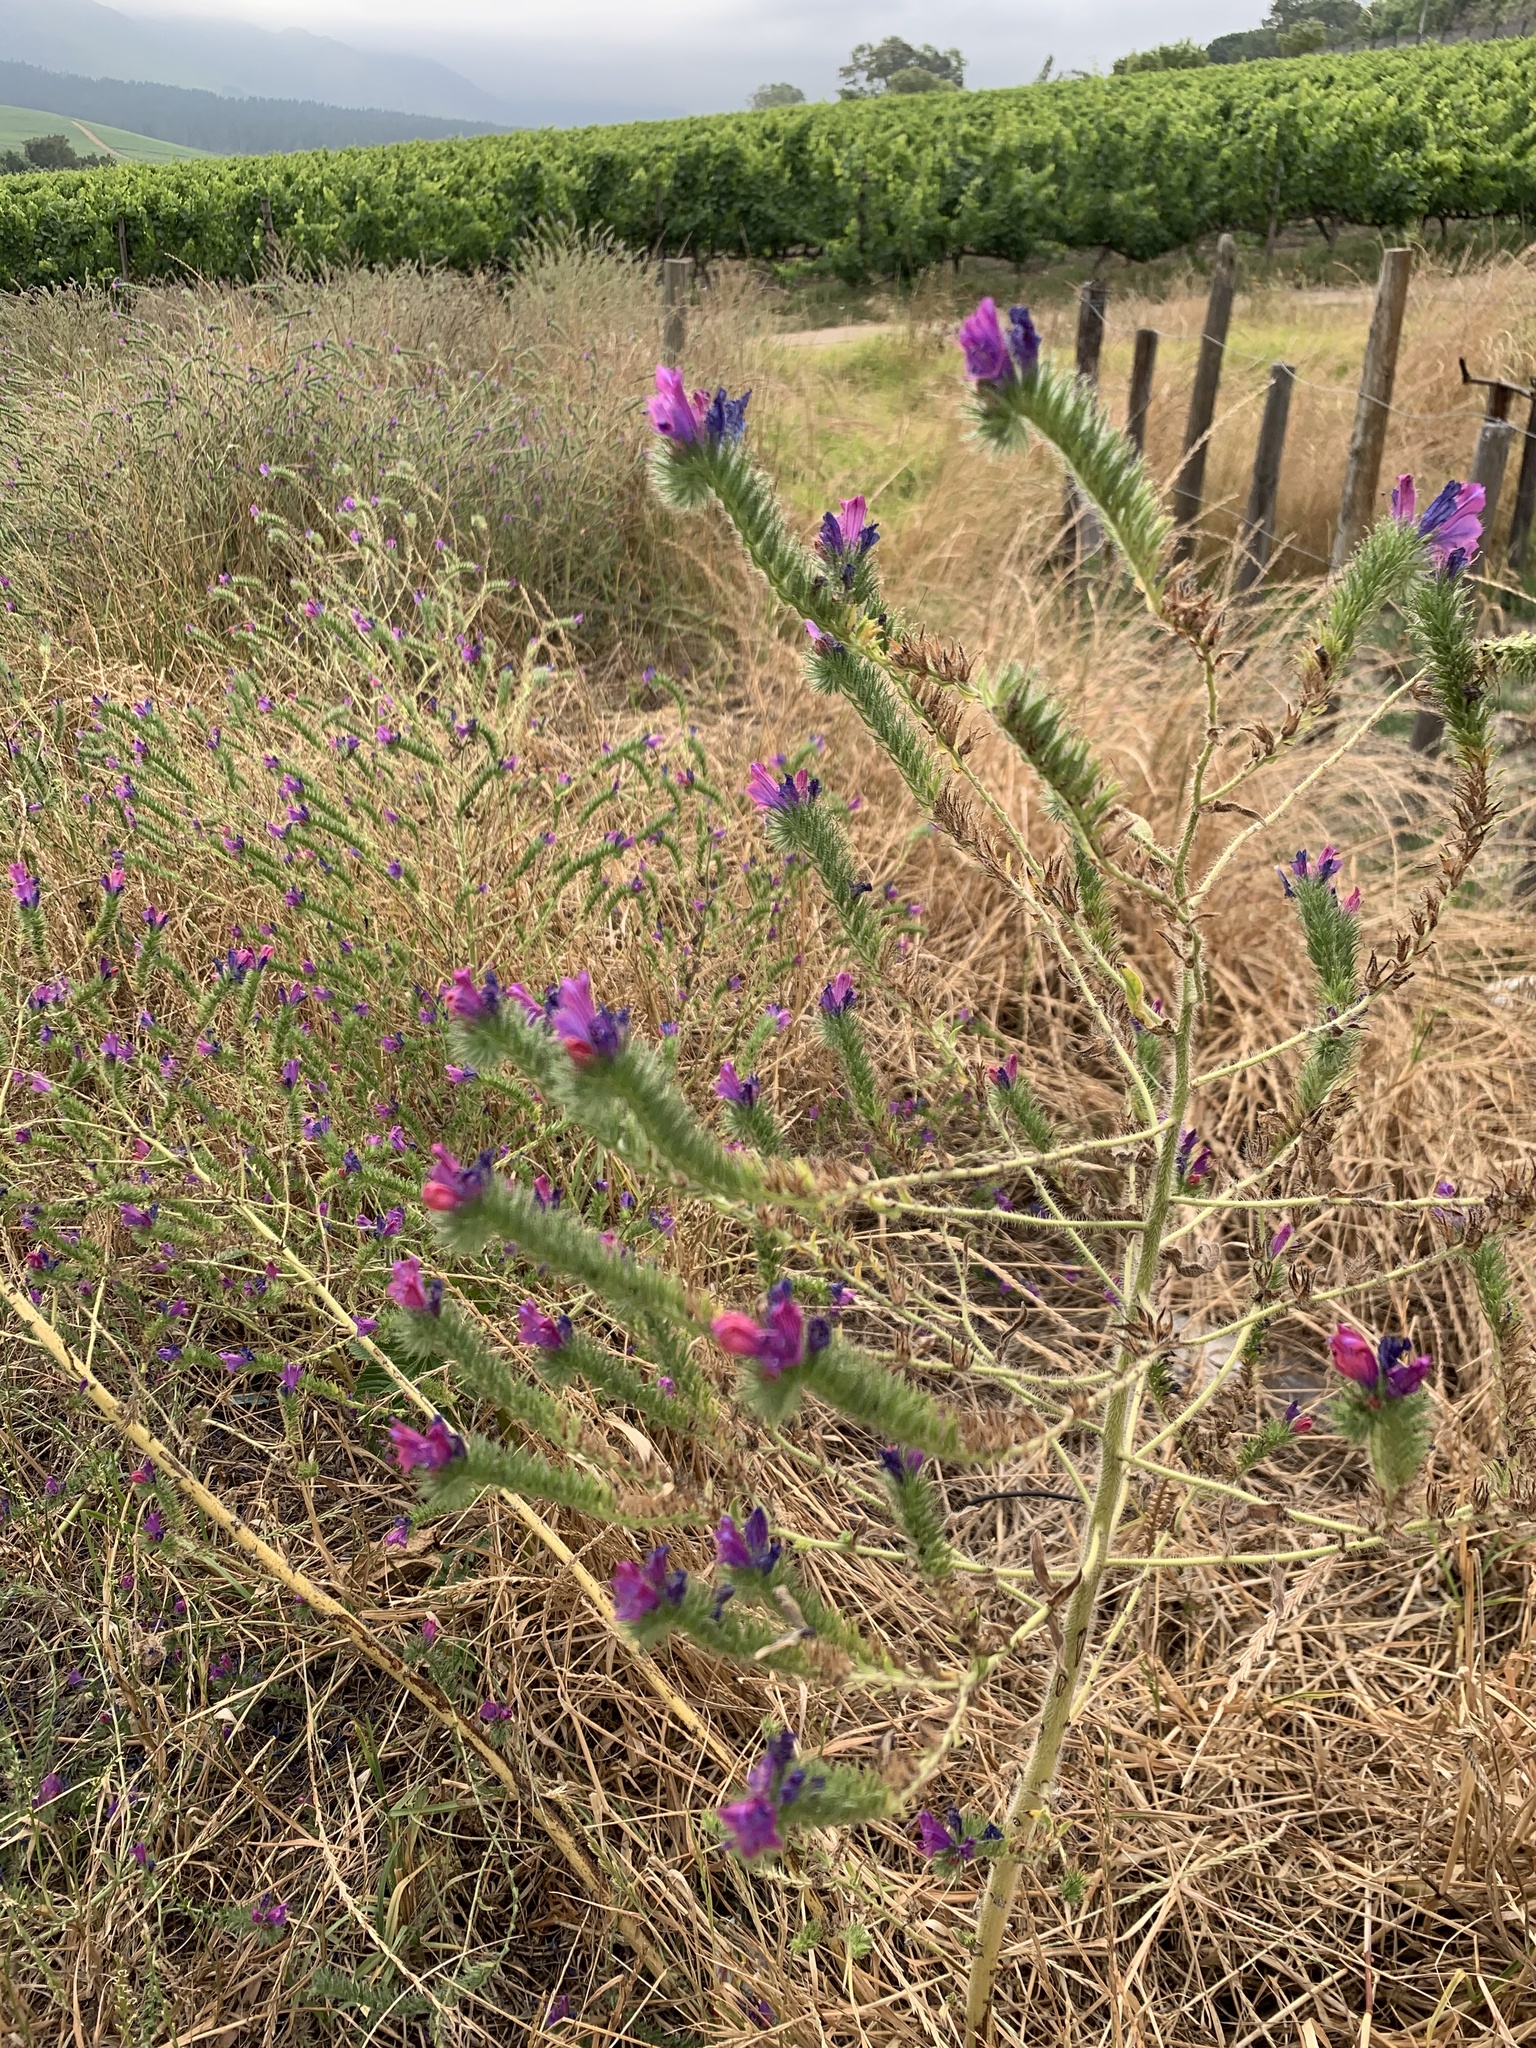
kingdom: Plantae
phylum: Tracheophyta
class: Magnoliopsida
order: Boraginales
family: Boraginaceae
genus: Echium
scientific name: Echium plantagineum
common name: Purple viper's-bugloss
